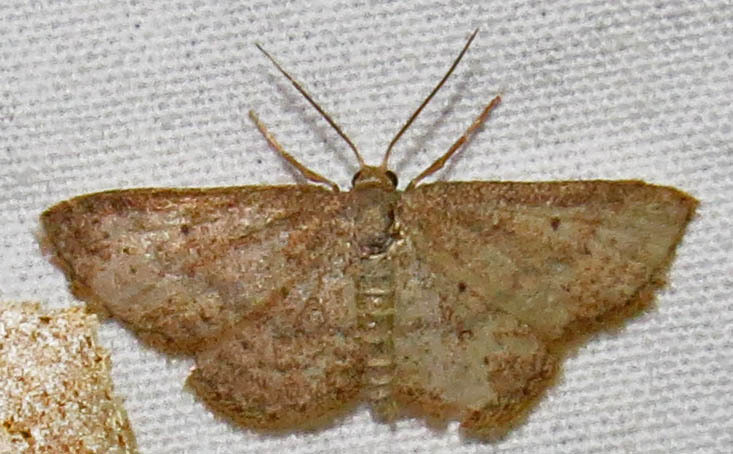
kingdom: Animalia
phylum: Arthropoda
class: Insecta
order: Lepidoptera
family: Geometridae
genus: Lobocleta
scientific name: Lobocleta ossularia
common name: Drab brown wave
